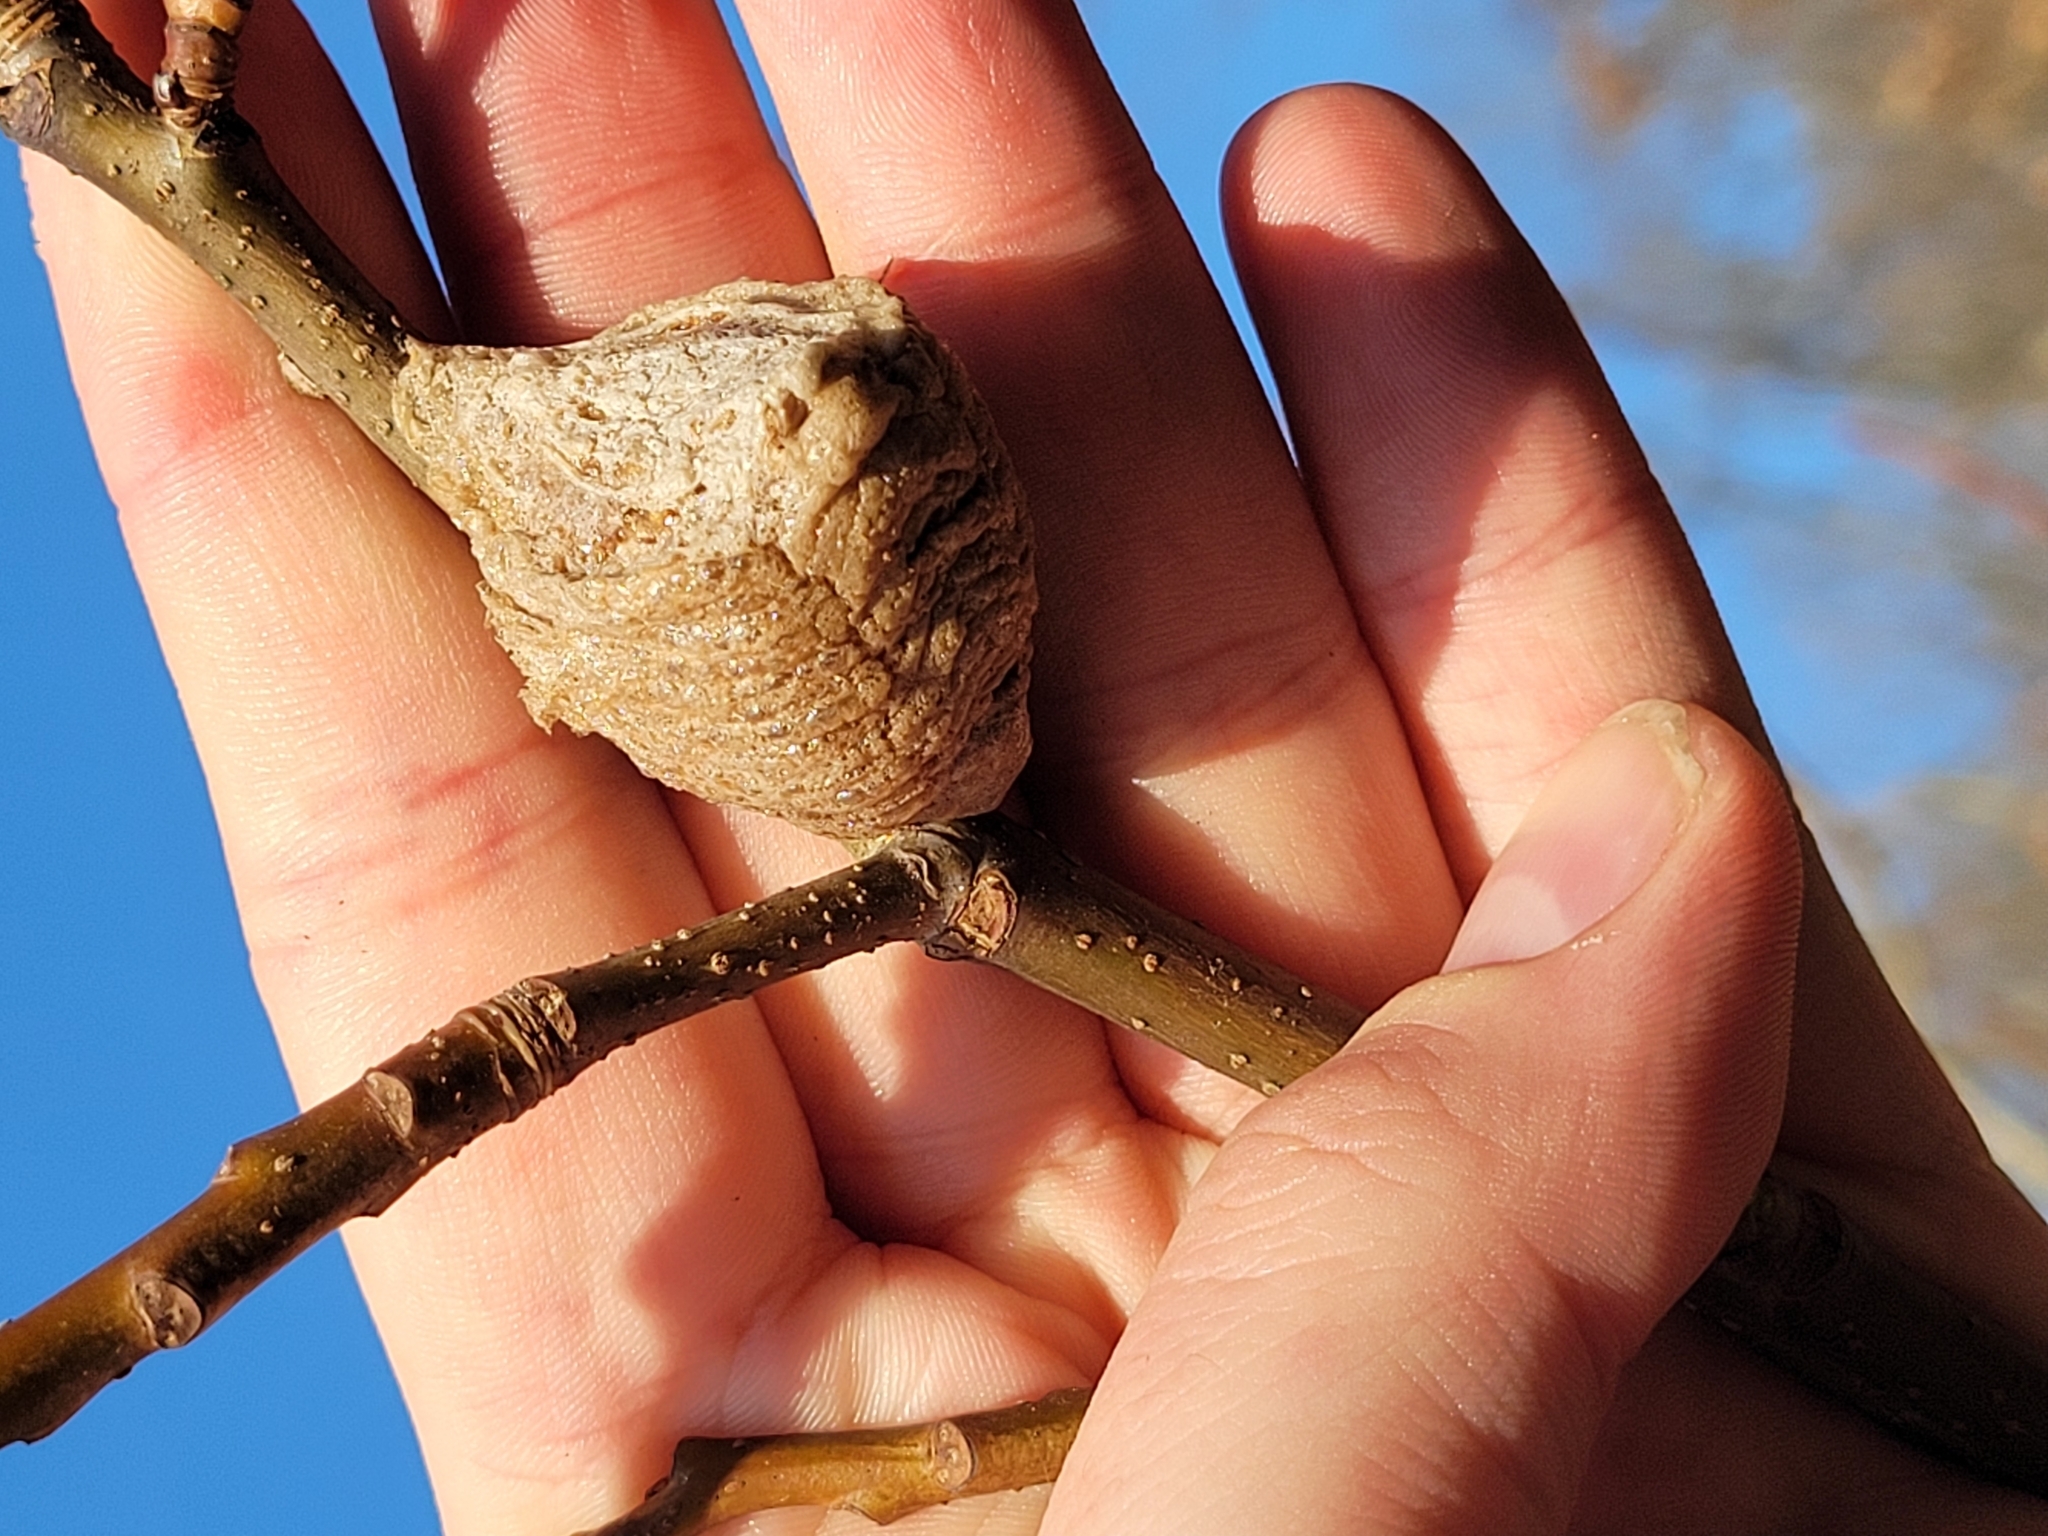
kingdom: Animalia
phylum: Arthropoda
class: Insecta
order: Mantodea
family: Mantidae
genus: Tenodera
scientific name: Tenodera sinensis
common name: Chinese mantis
